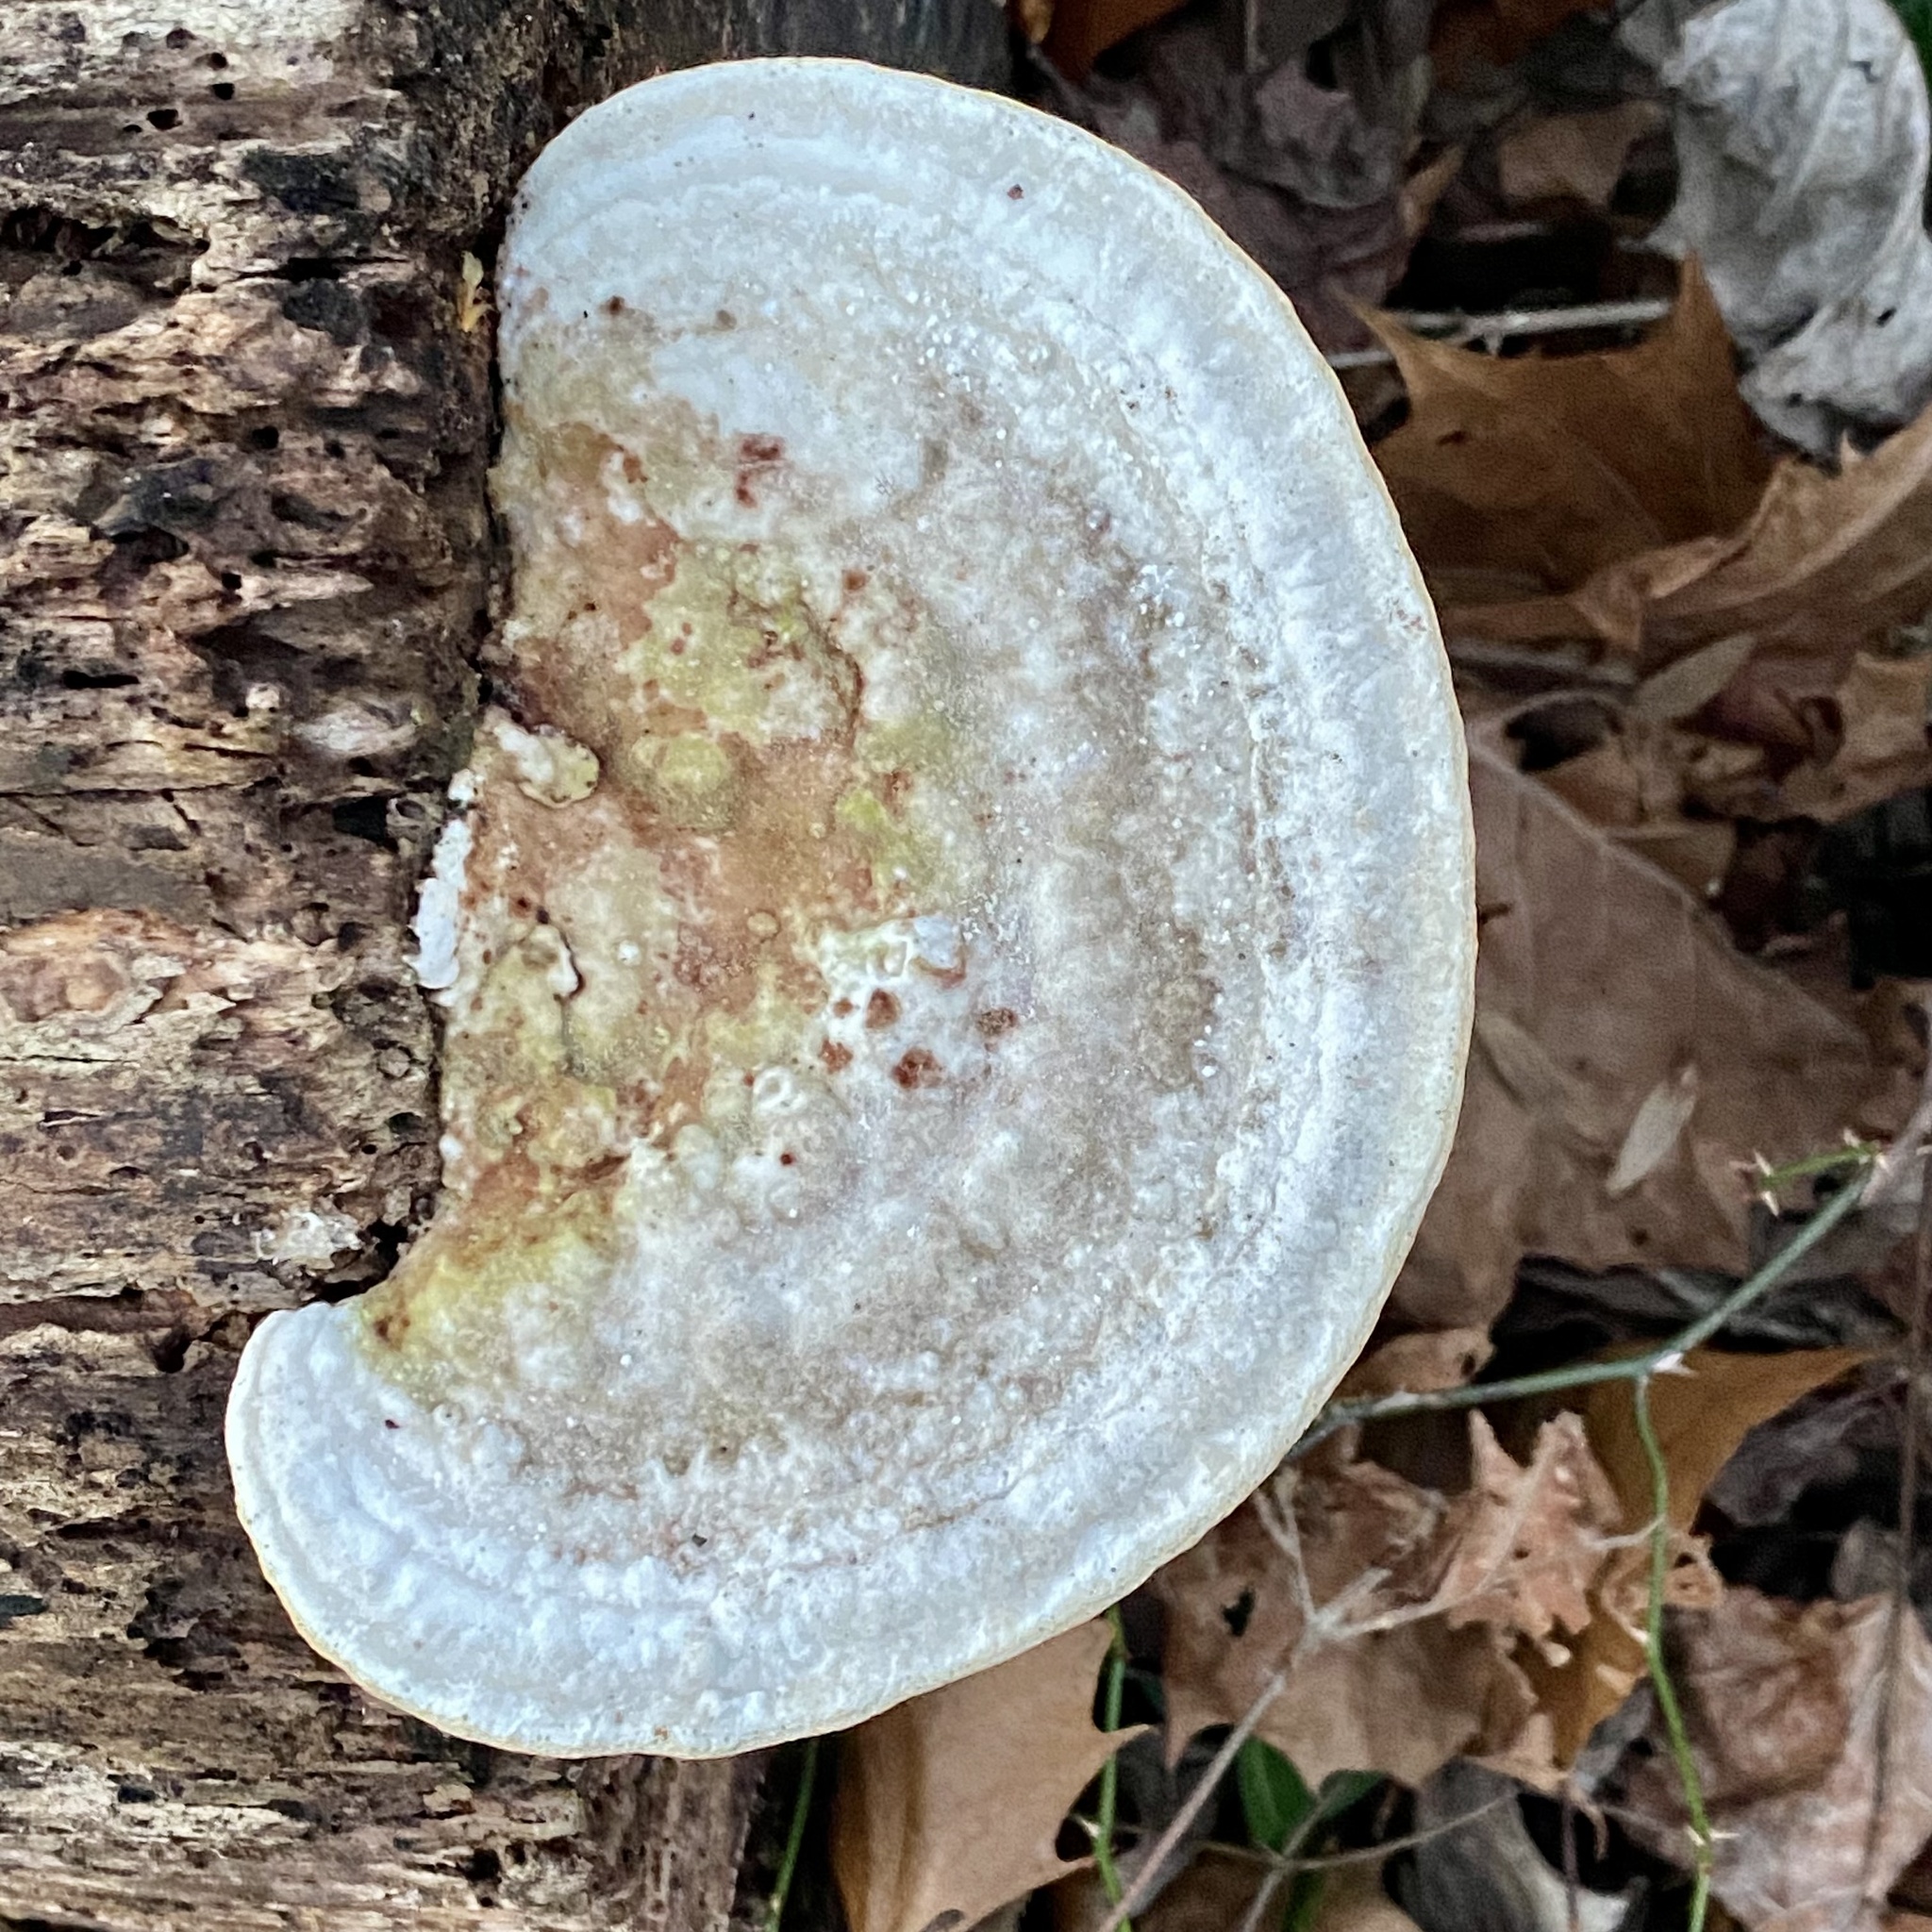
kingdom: Fungi
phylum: Basidiomycota
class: Agaricomycetes
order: Polyporales
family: Polyporaceae
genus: Trametes
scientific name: Trametes gibbosa
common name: Lumpy bracket
